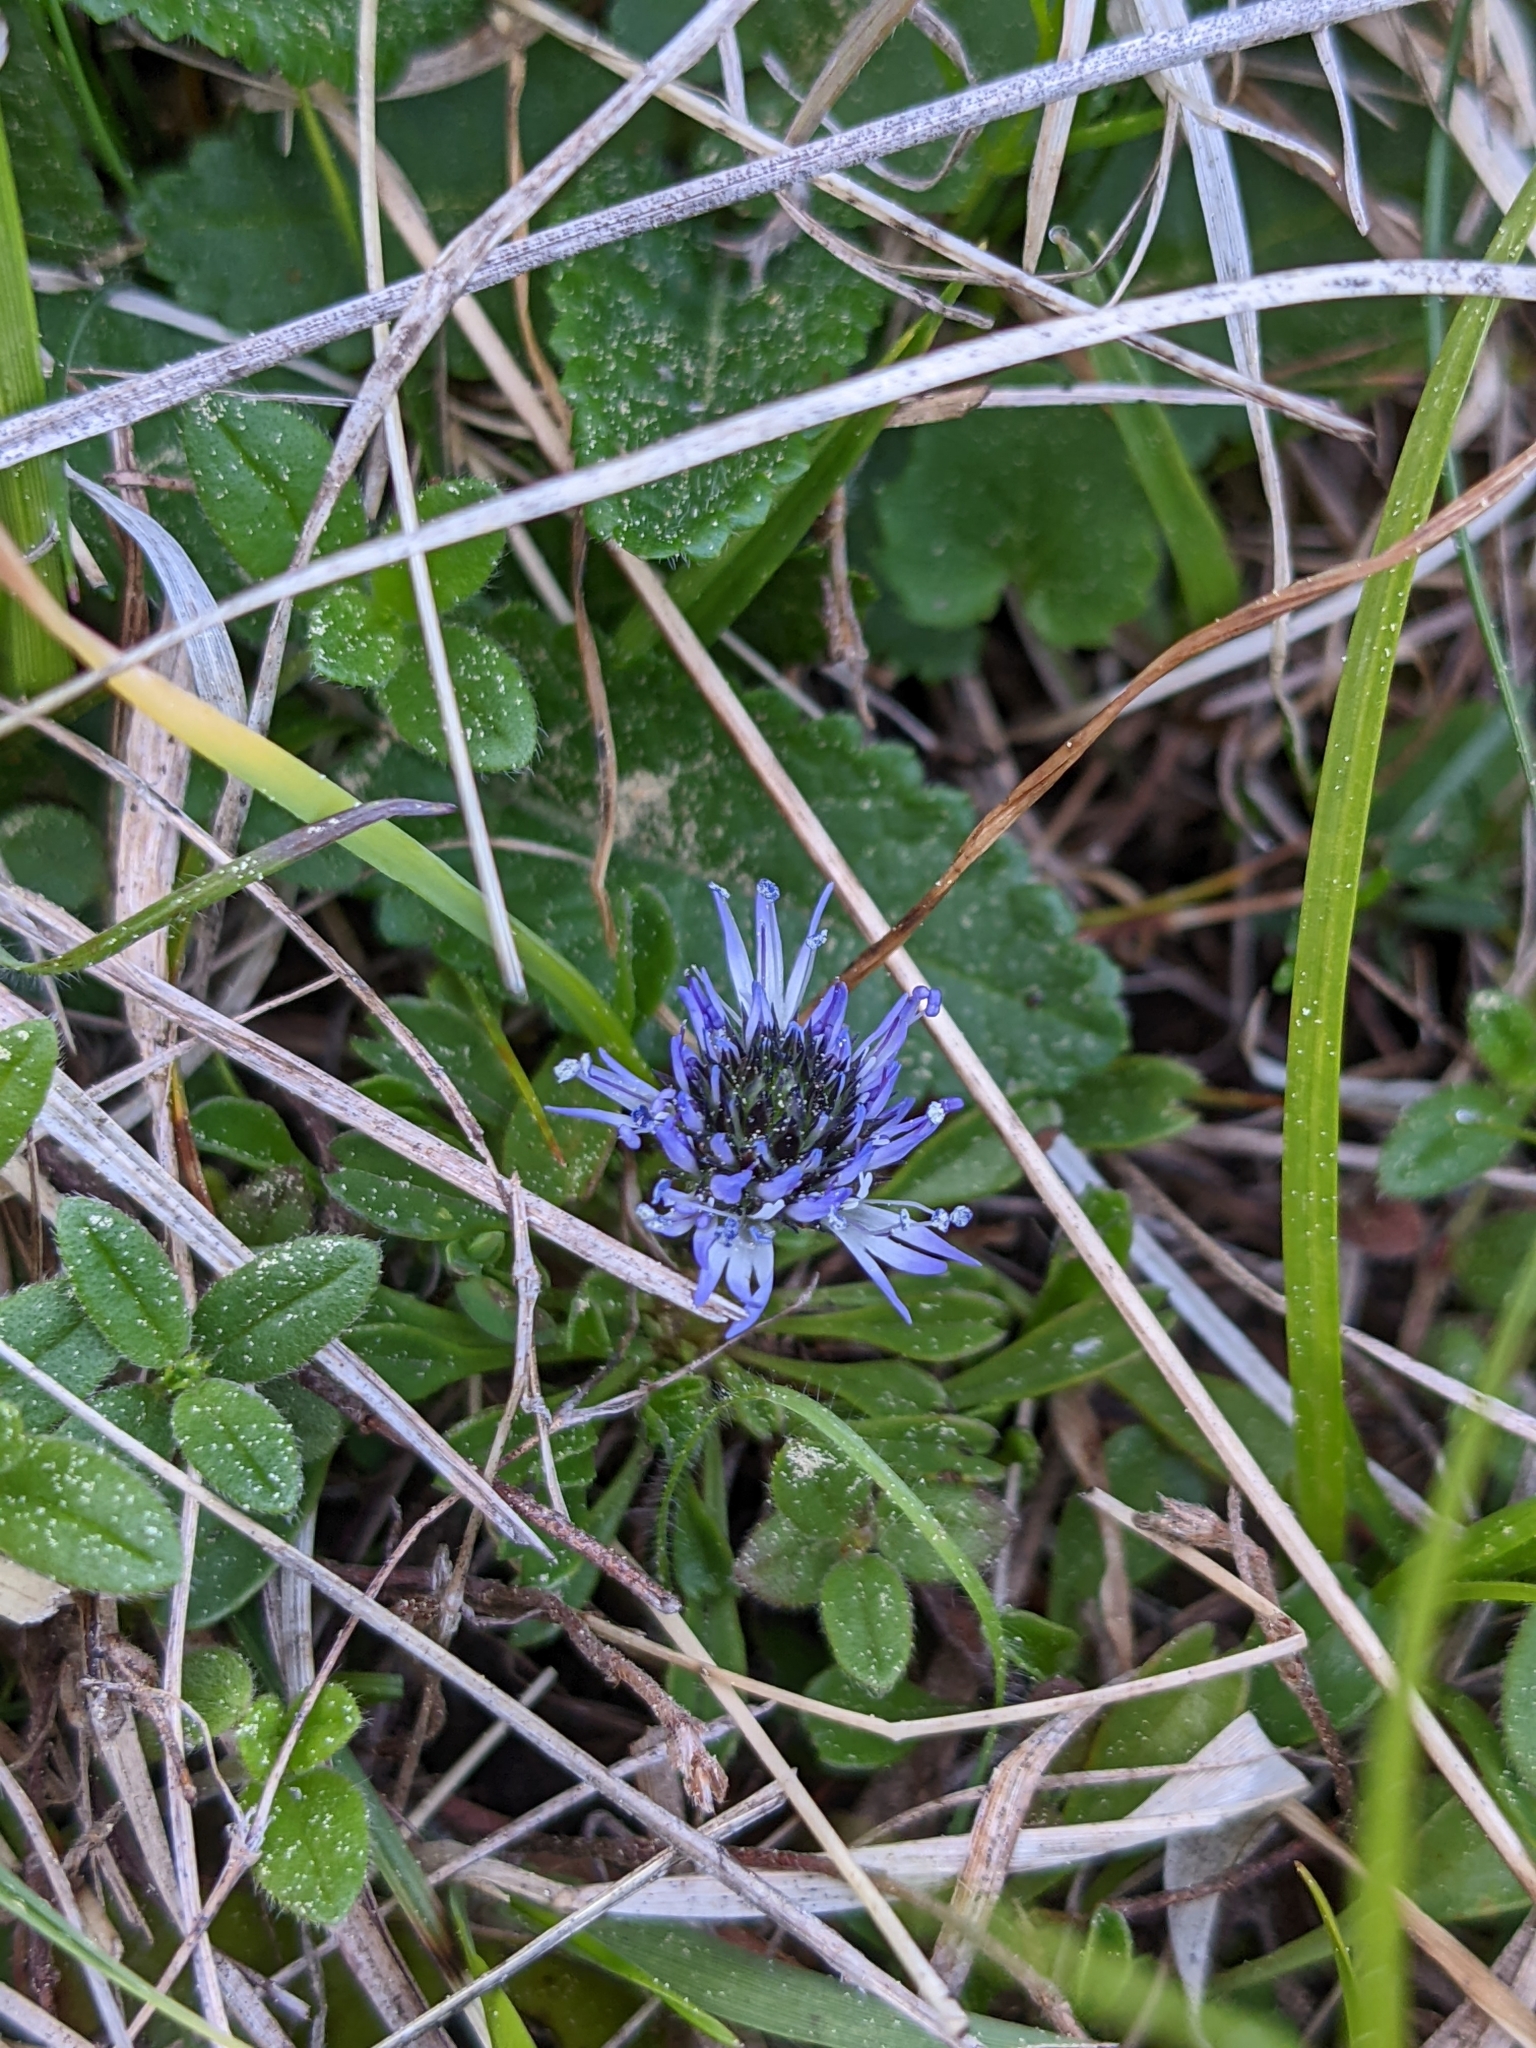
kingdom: Plantae
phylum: Tracheophyta
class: Magnoliopsida
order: Lamiales
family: Plantaginaceae
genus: Globularia
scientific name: Globularia cordifolia
